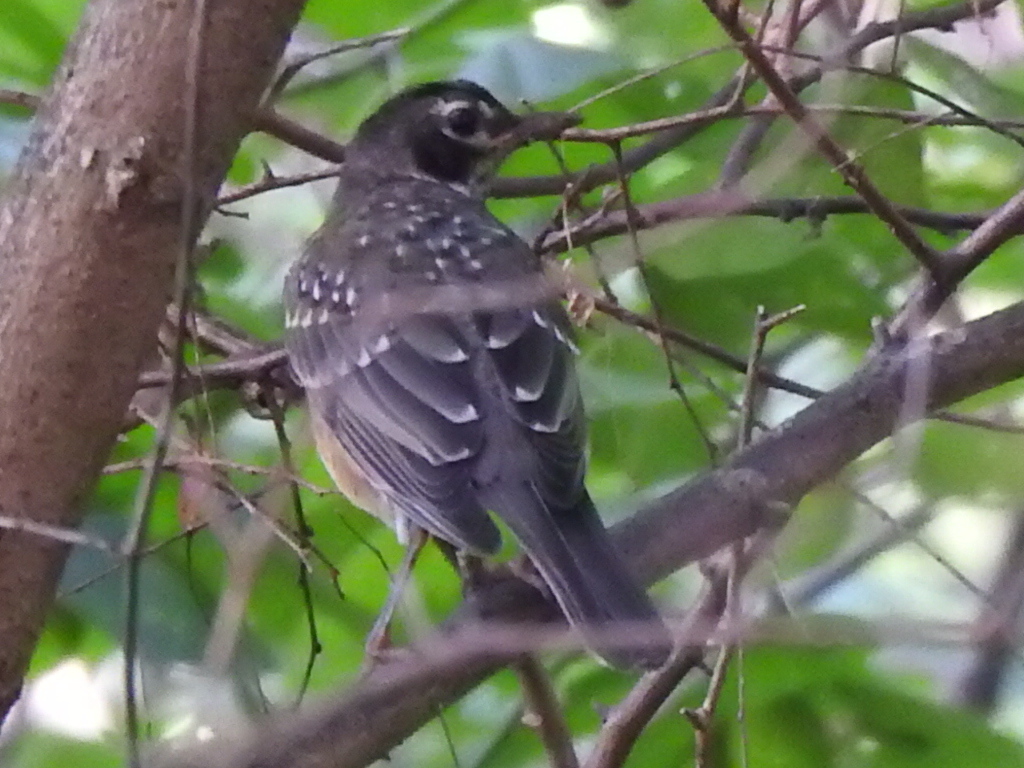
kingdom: Animalia
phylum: Chordata
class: Aves
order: Passeriformes
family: Turdidae
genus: Turdus
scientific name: Turdus migratorius
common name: American robin
